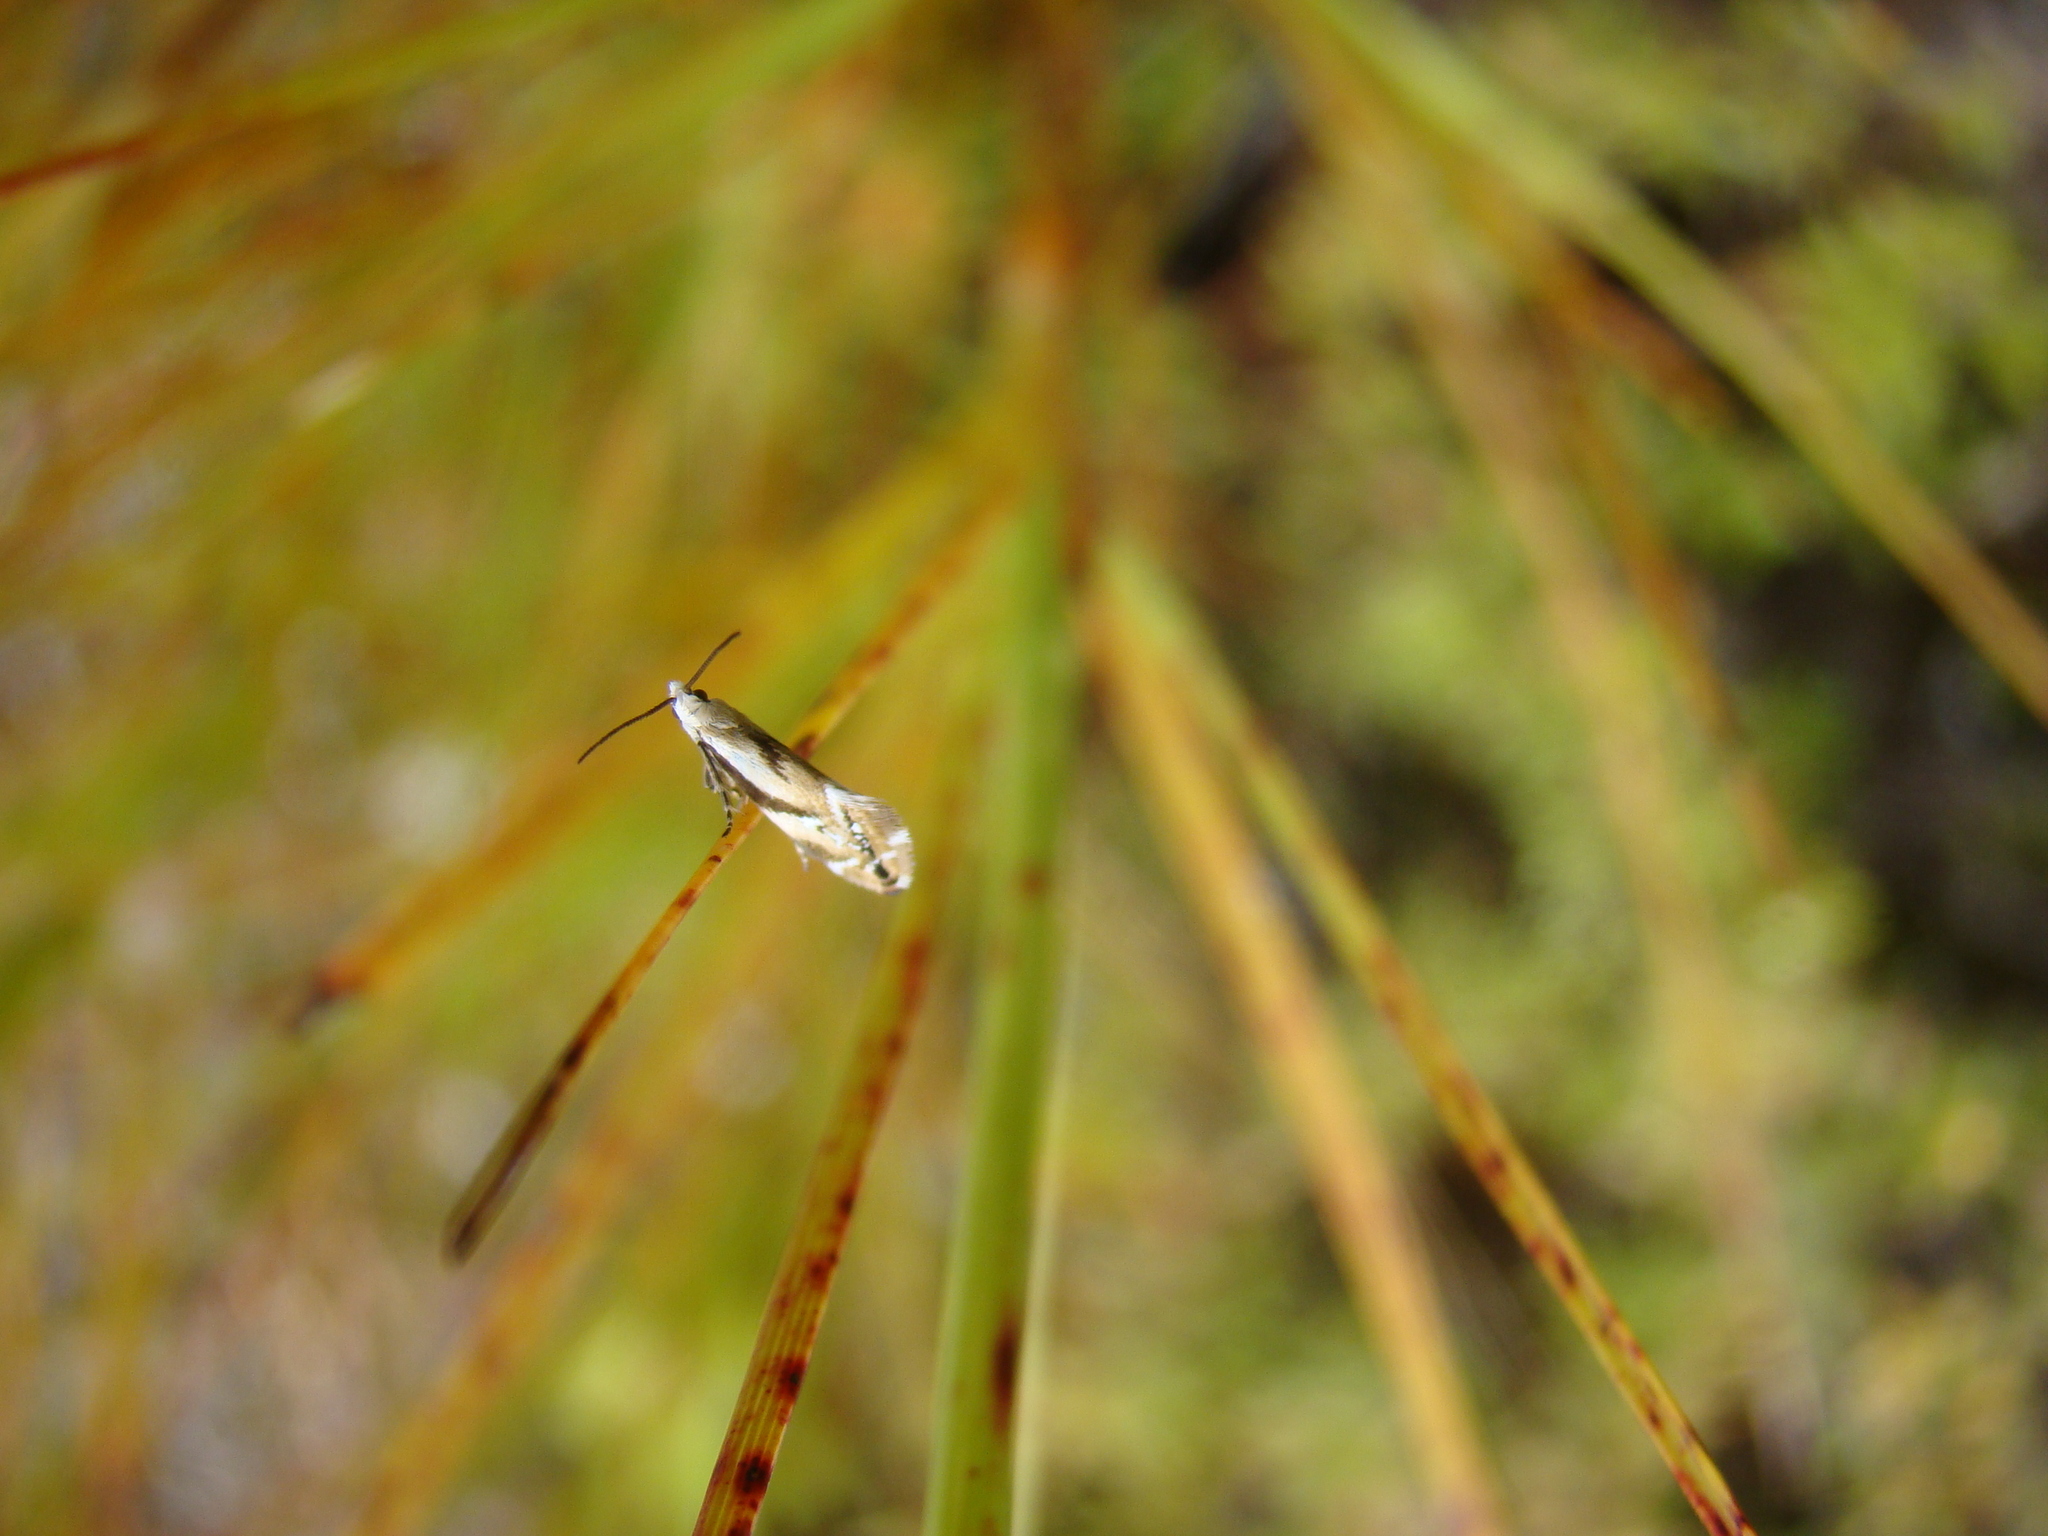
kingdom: Animalia
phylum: Arthropoda
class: Insecta
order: Lepidoptera
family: Mnesarchaeidae
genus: Mnesarchella
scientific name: Mnesarchella acuta
